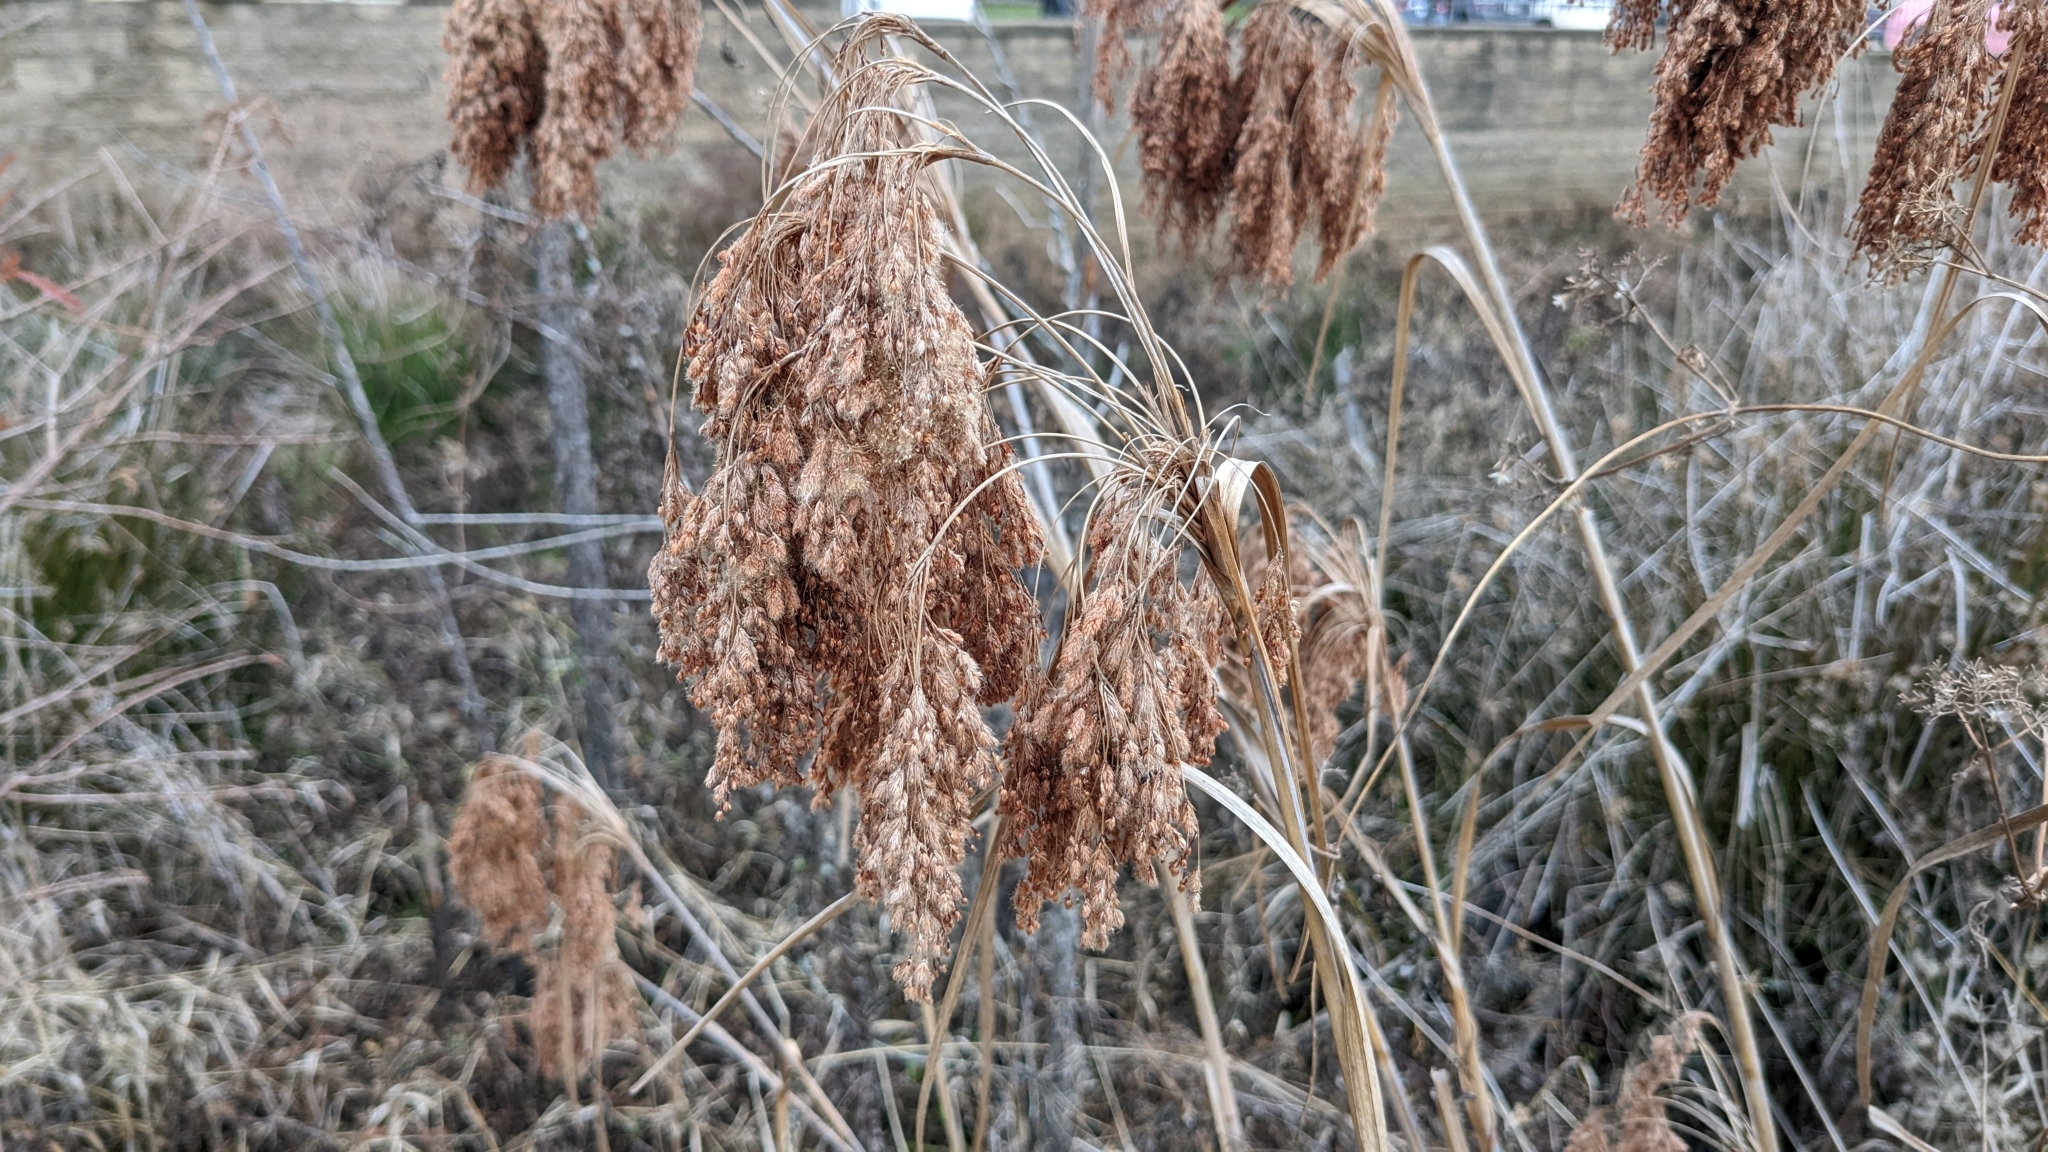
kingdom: Plantae
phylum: Tracheophyta
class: Liliopsida
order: Poales
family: Cyperaceae
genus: Scirpus
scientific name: Scirpus cyperinus
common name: Black-sheathed bulrush
